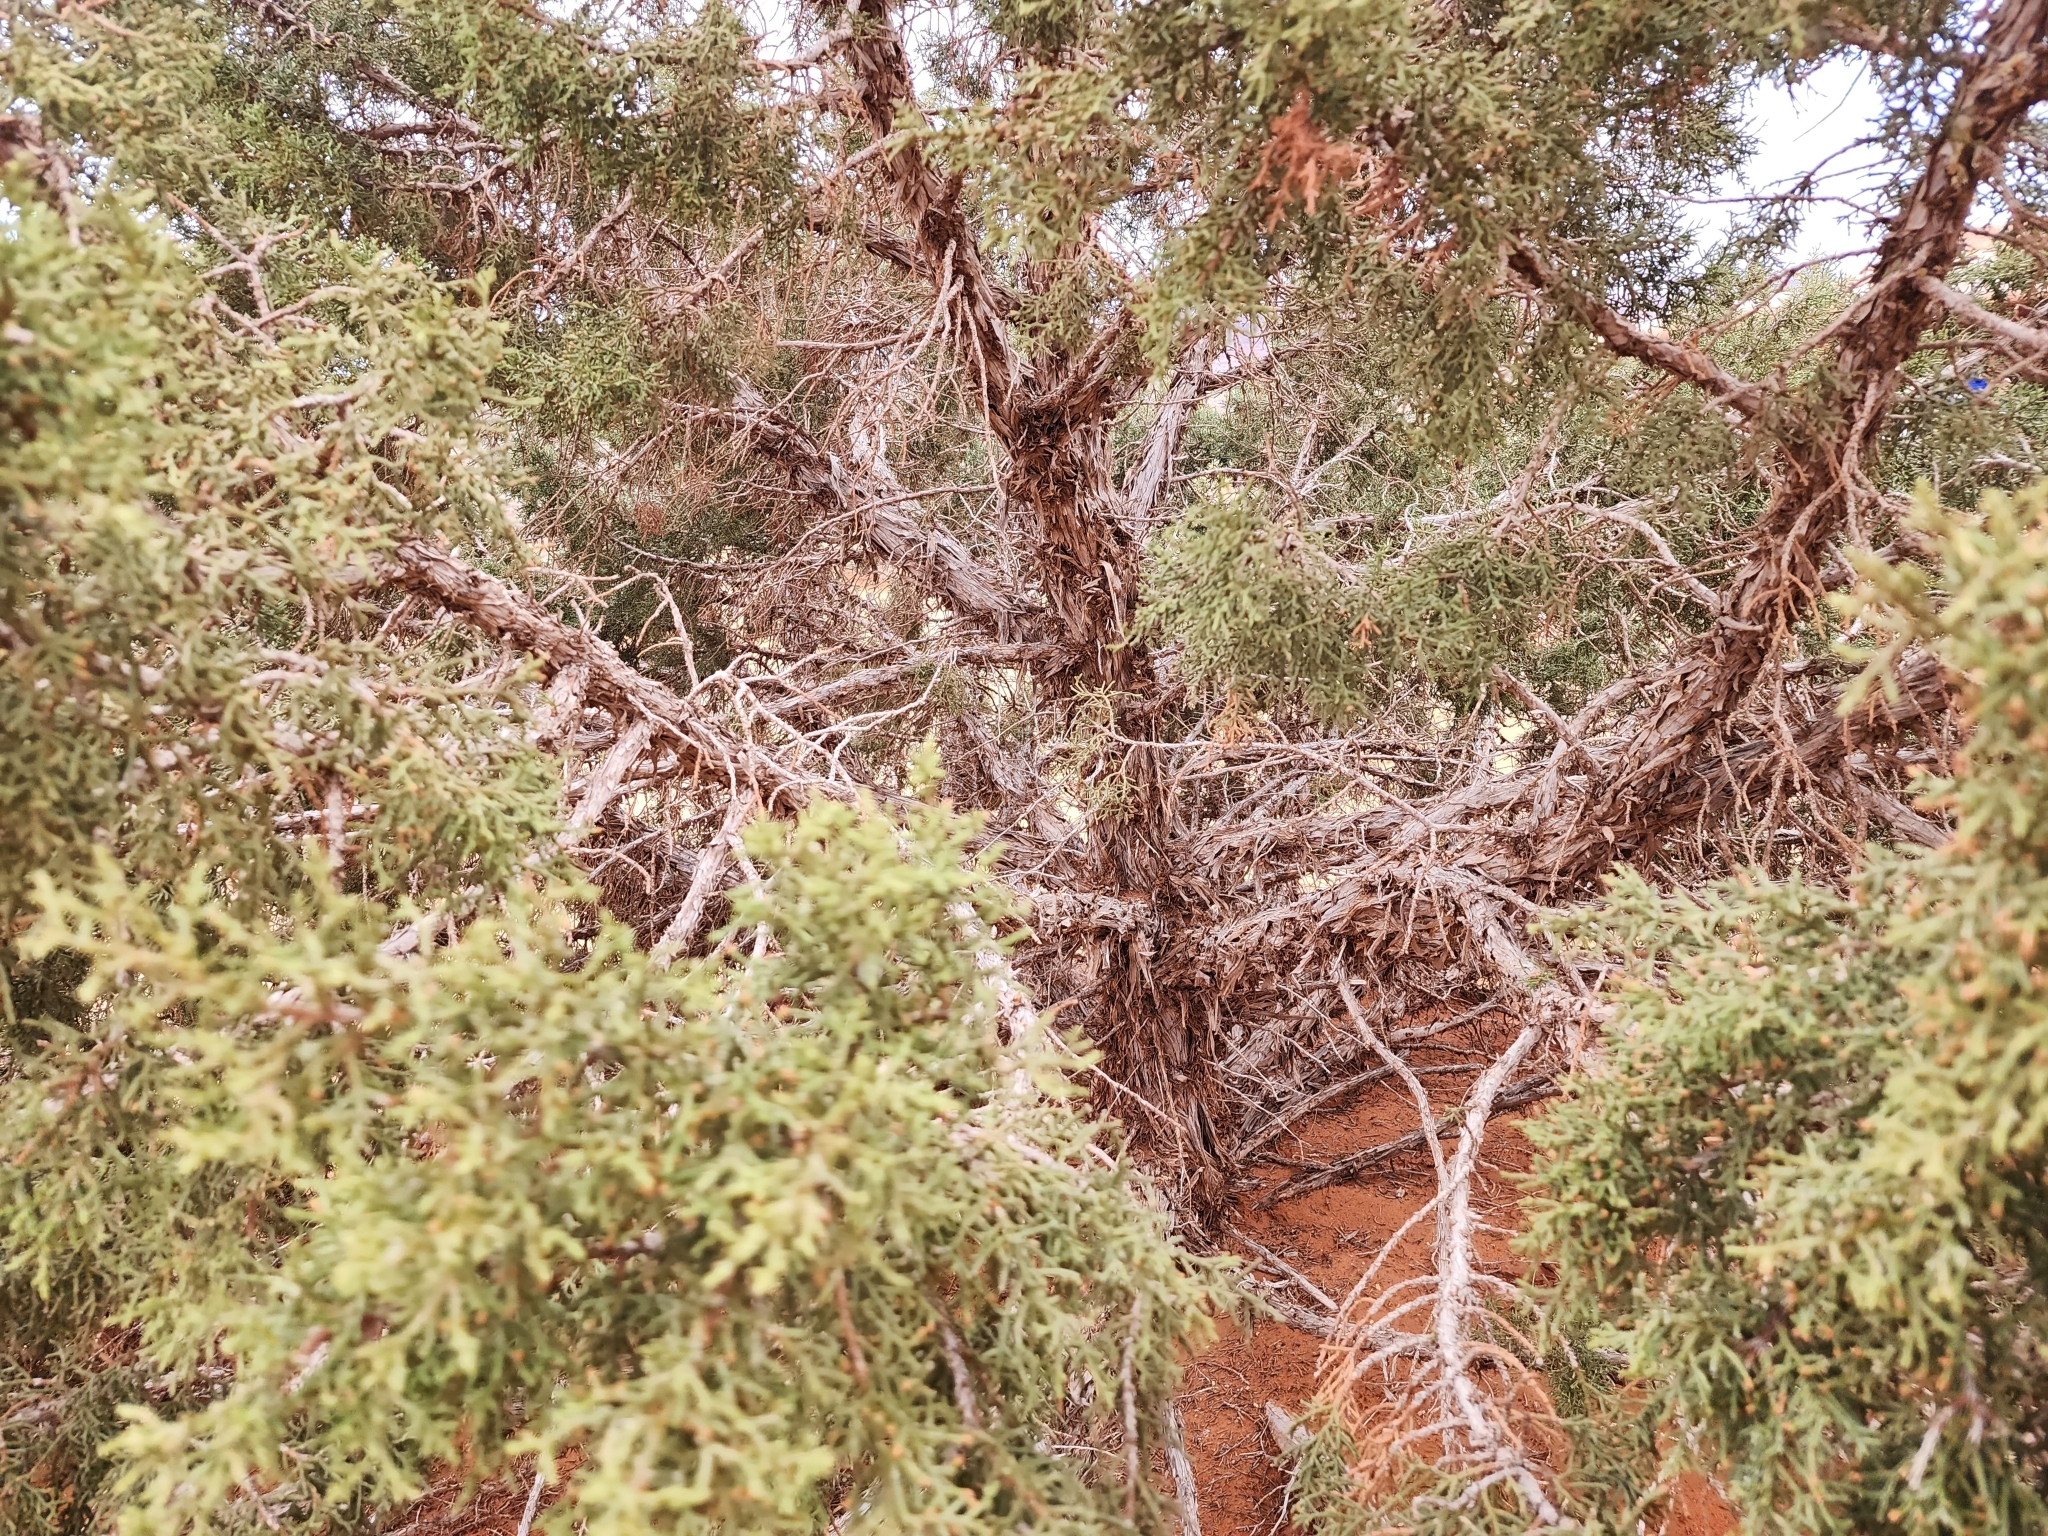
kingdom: Plantae
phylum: Tracheophyta
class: Pinopsida
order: Pinales
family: Cupressaceae
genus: Juniperus
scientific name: Juniperus osteosperma
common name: Utah juniper
